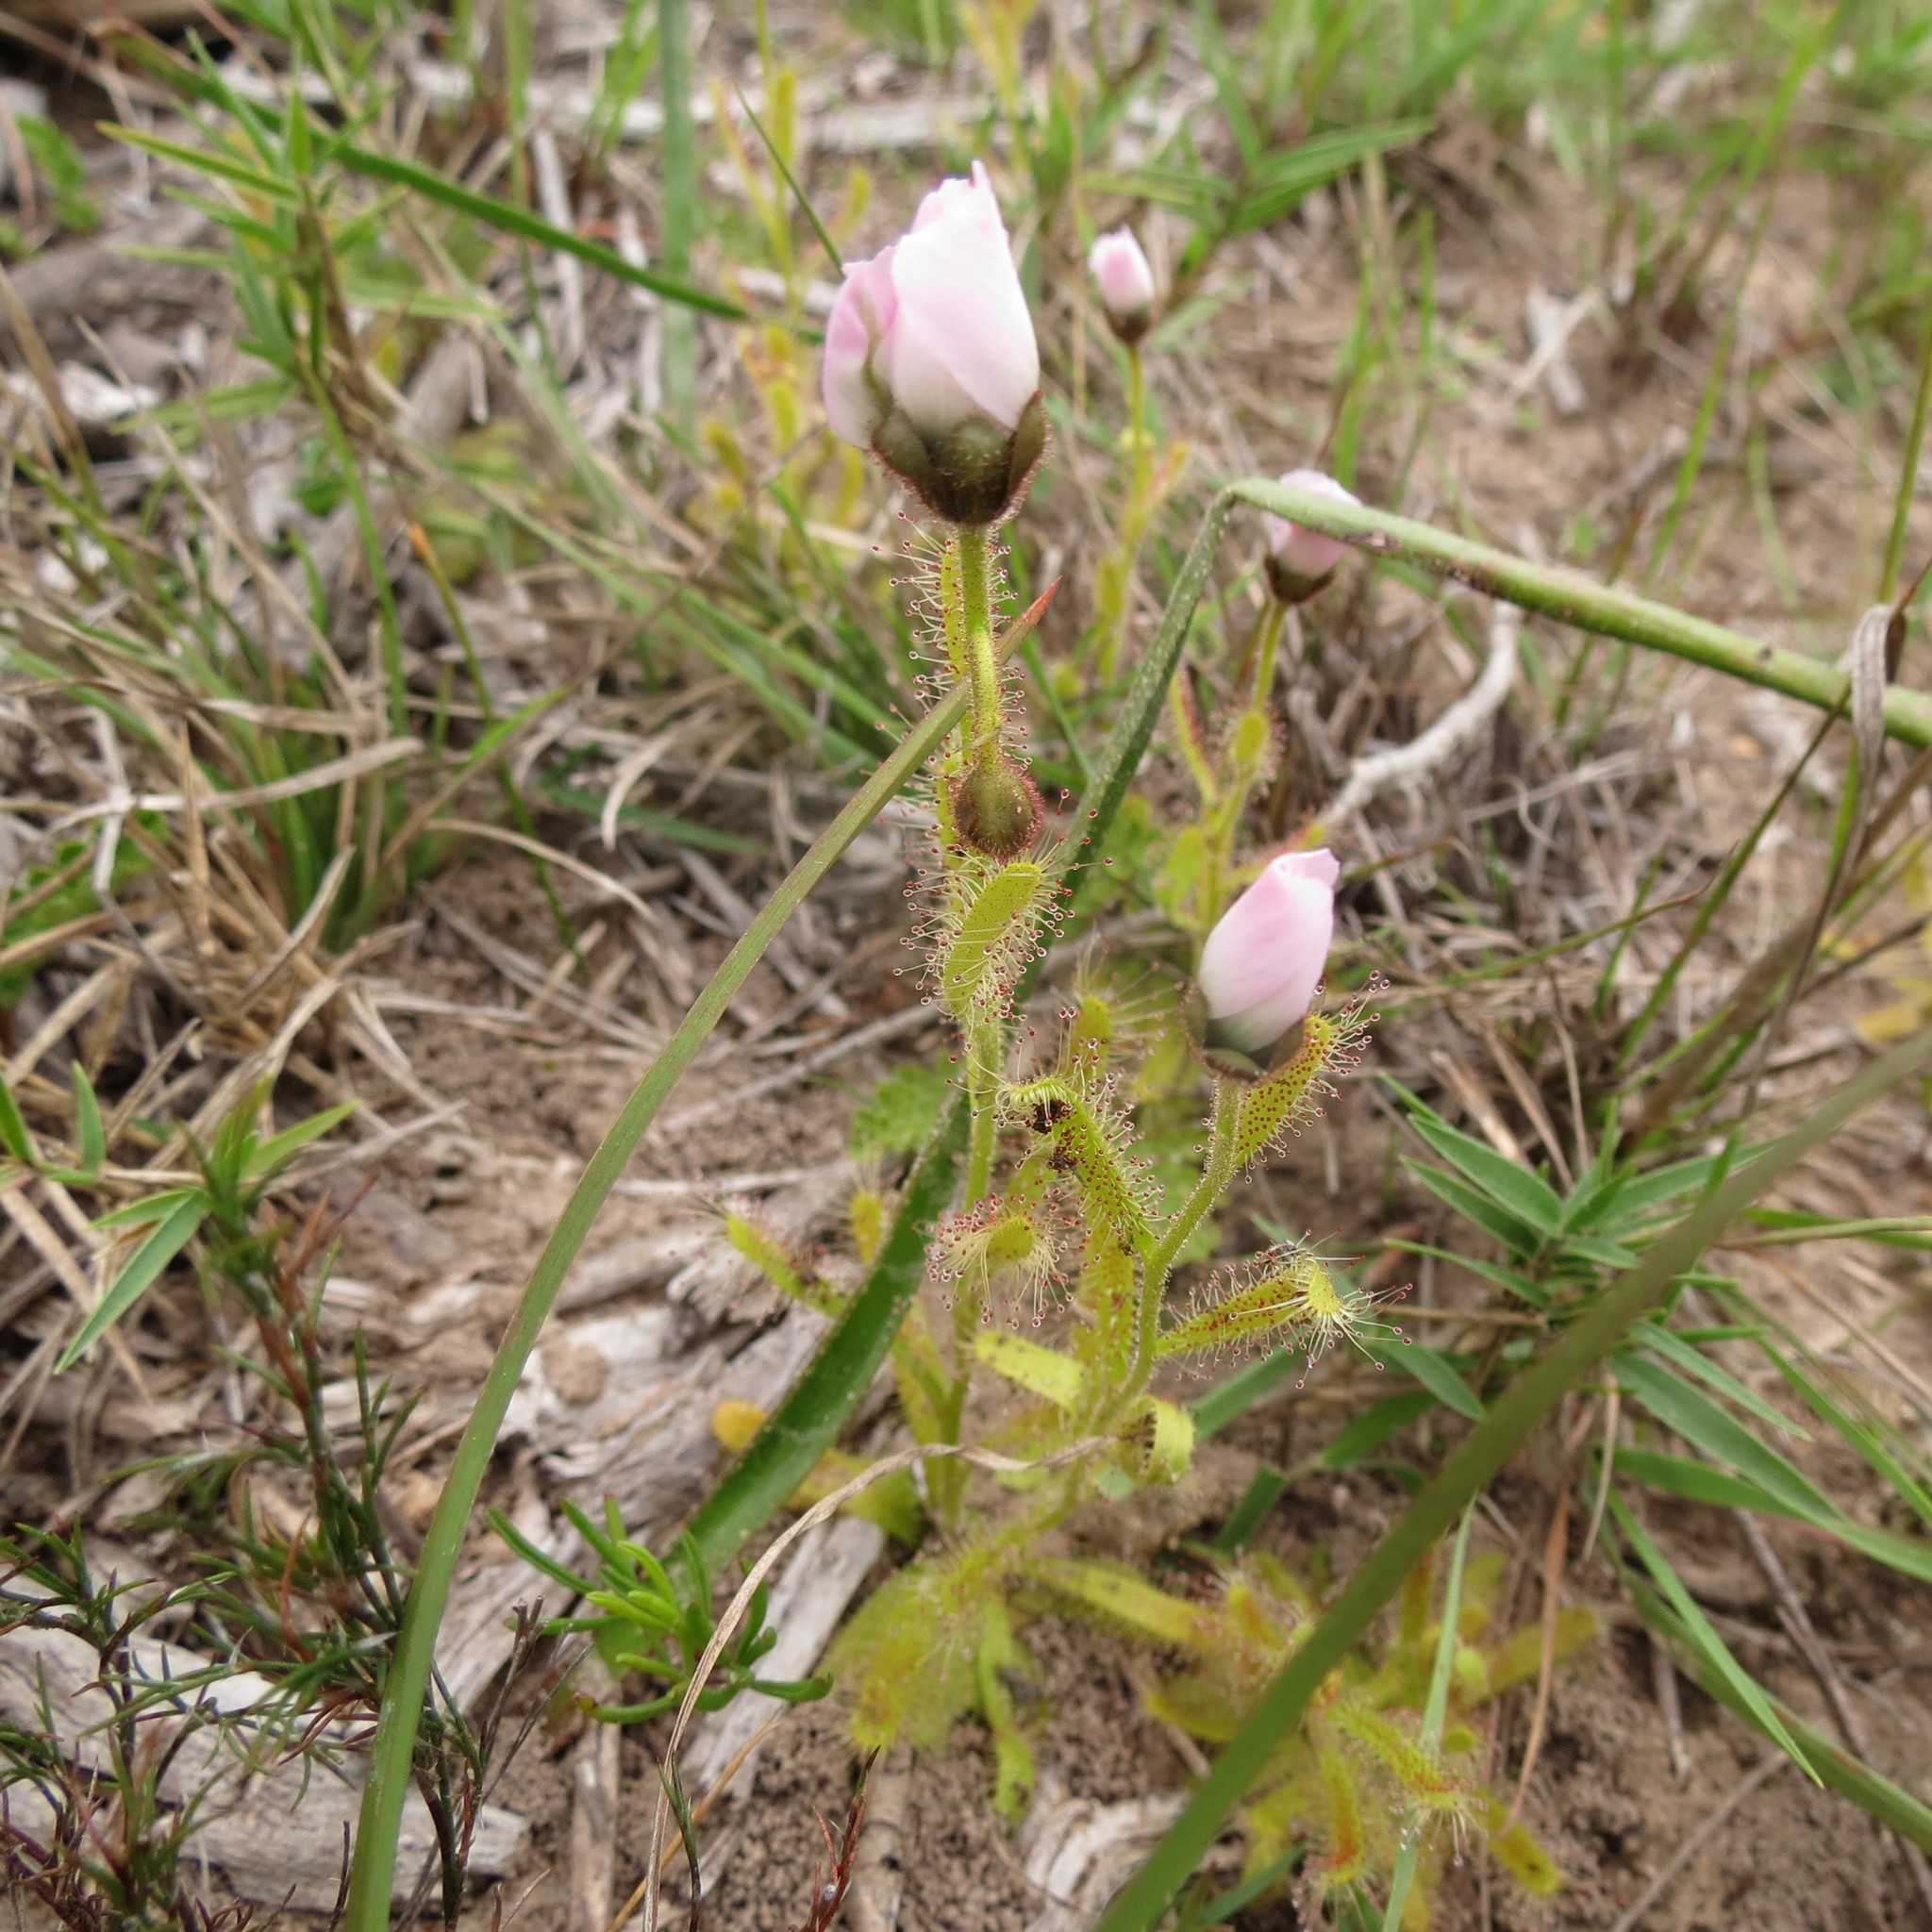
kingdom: Plantae
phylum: Tracheophyta
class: Magnoliopsida
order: Caryophyllales
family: Droseraceae
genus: Drosera
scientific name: Drosera cistiflora
